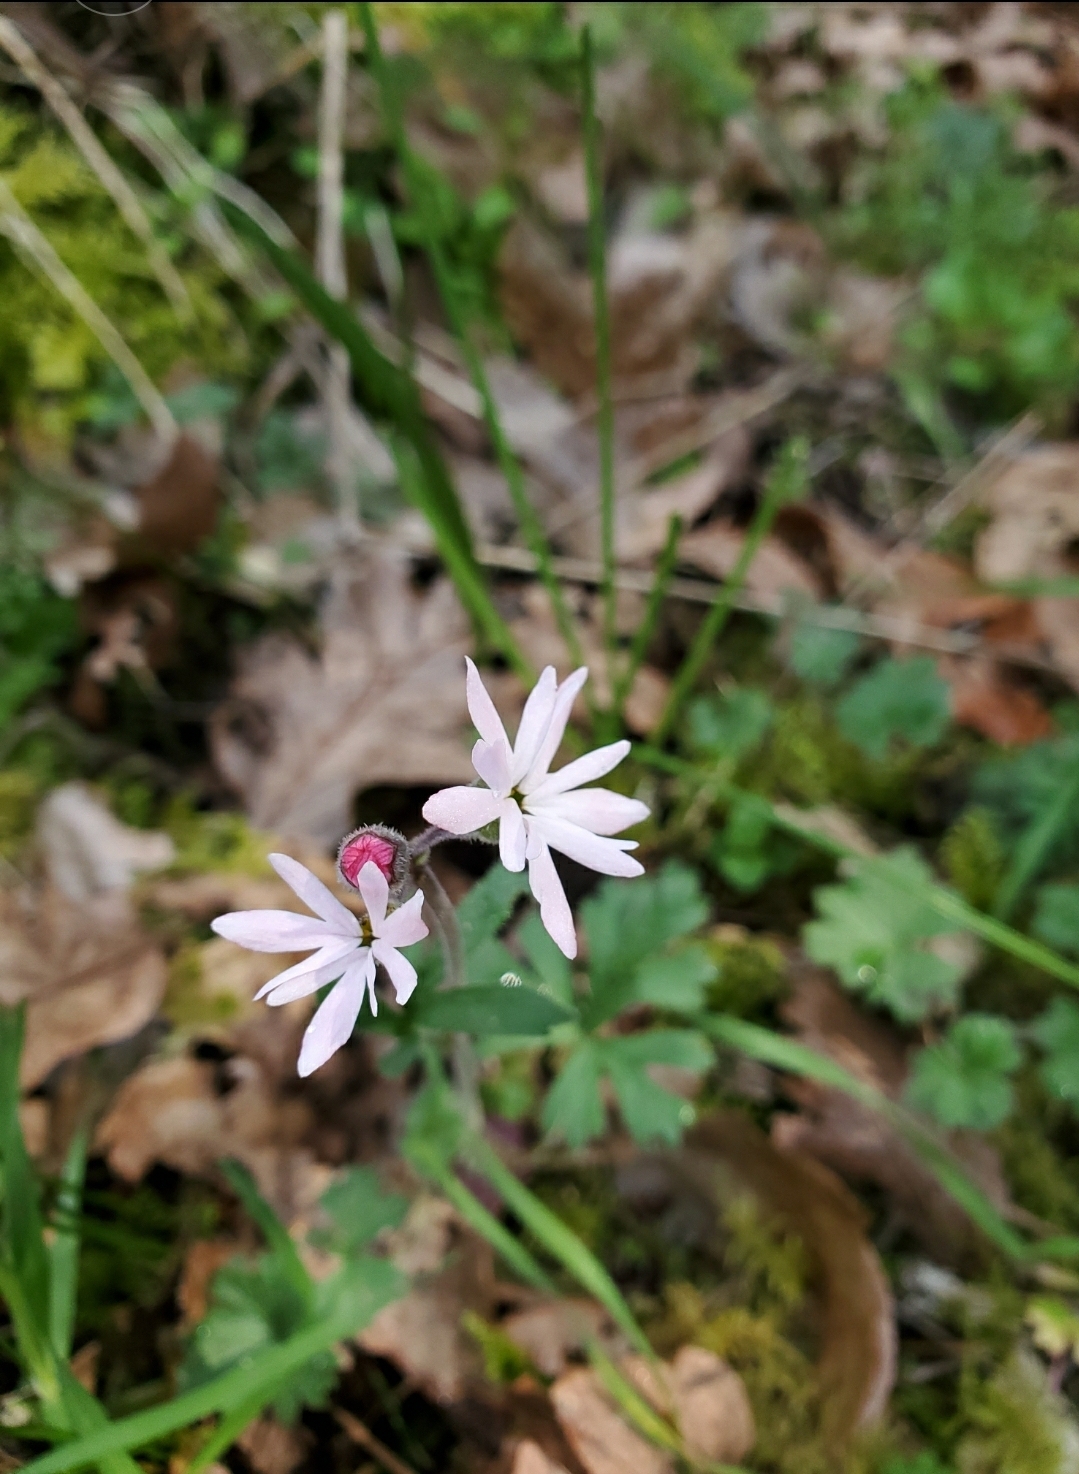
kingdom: Plantae
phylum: Tracheophyta
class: Magnoliopsida
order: Saxifragales
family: Saxifragaceae
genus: Lithophragma
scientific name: Lithophragma parviflorum
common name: Small-flowered fringe-cup
